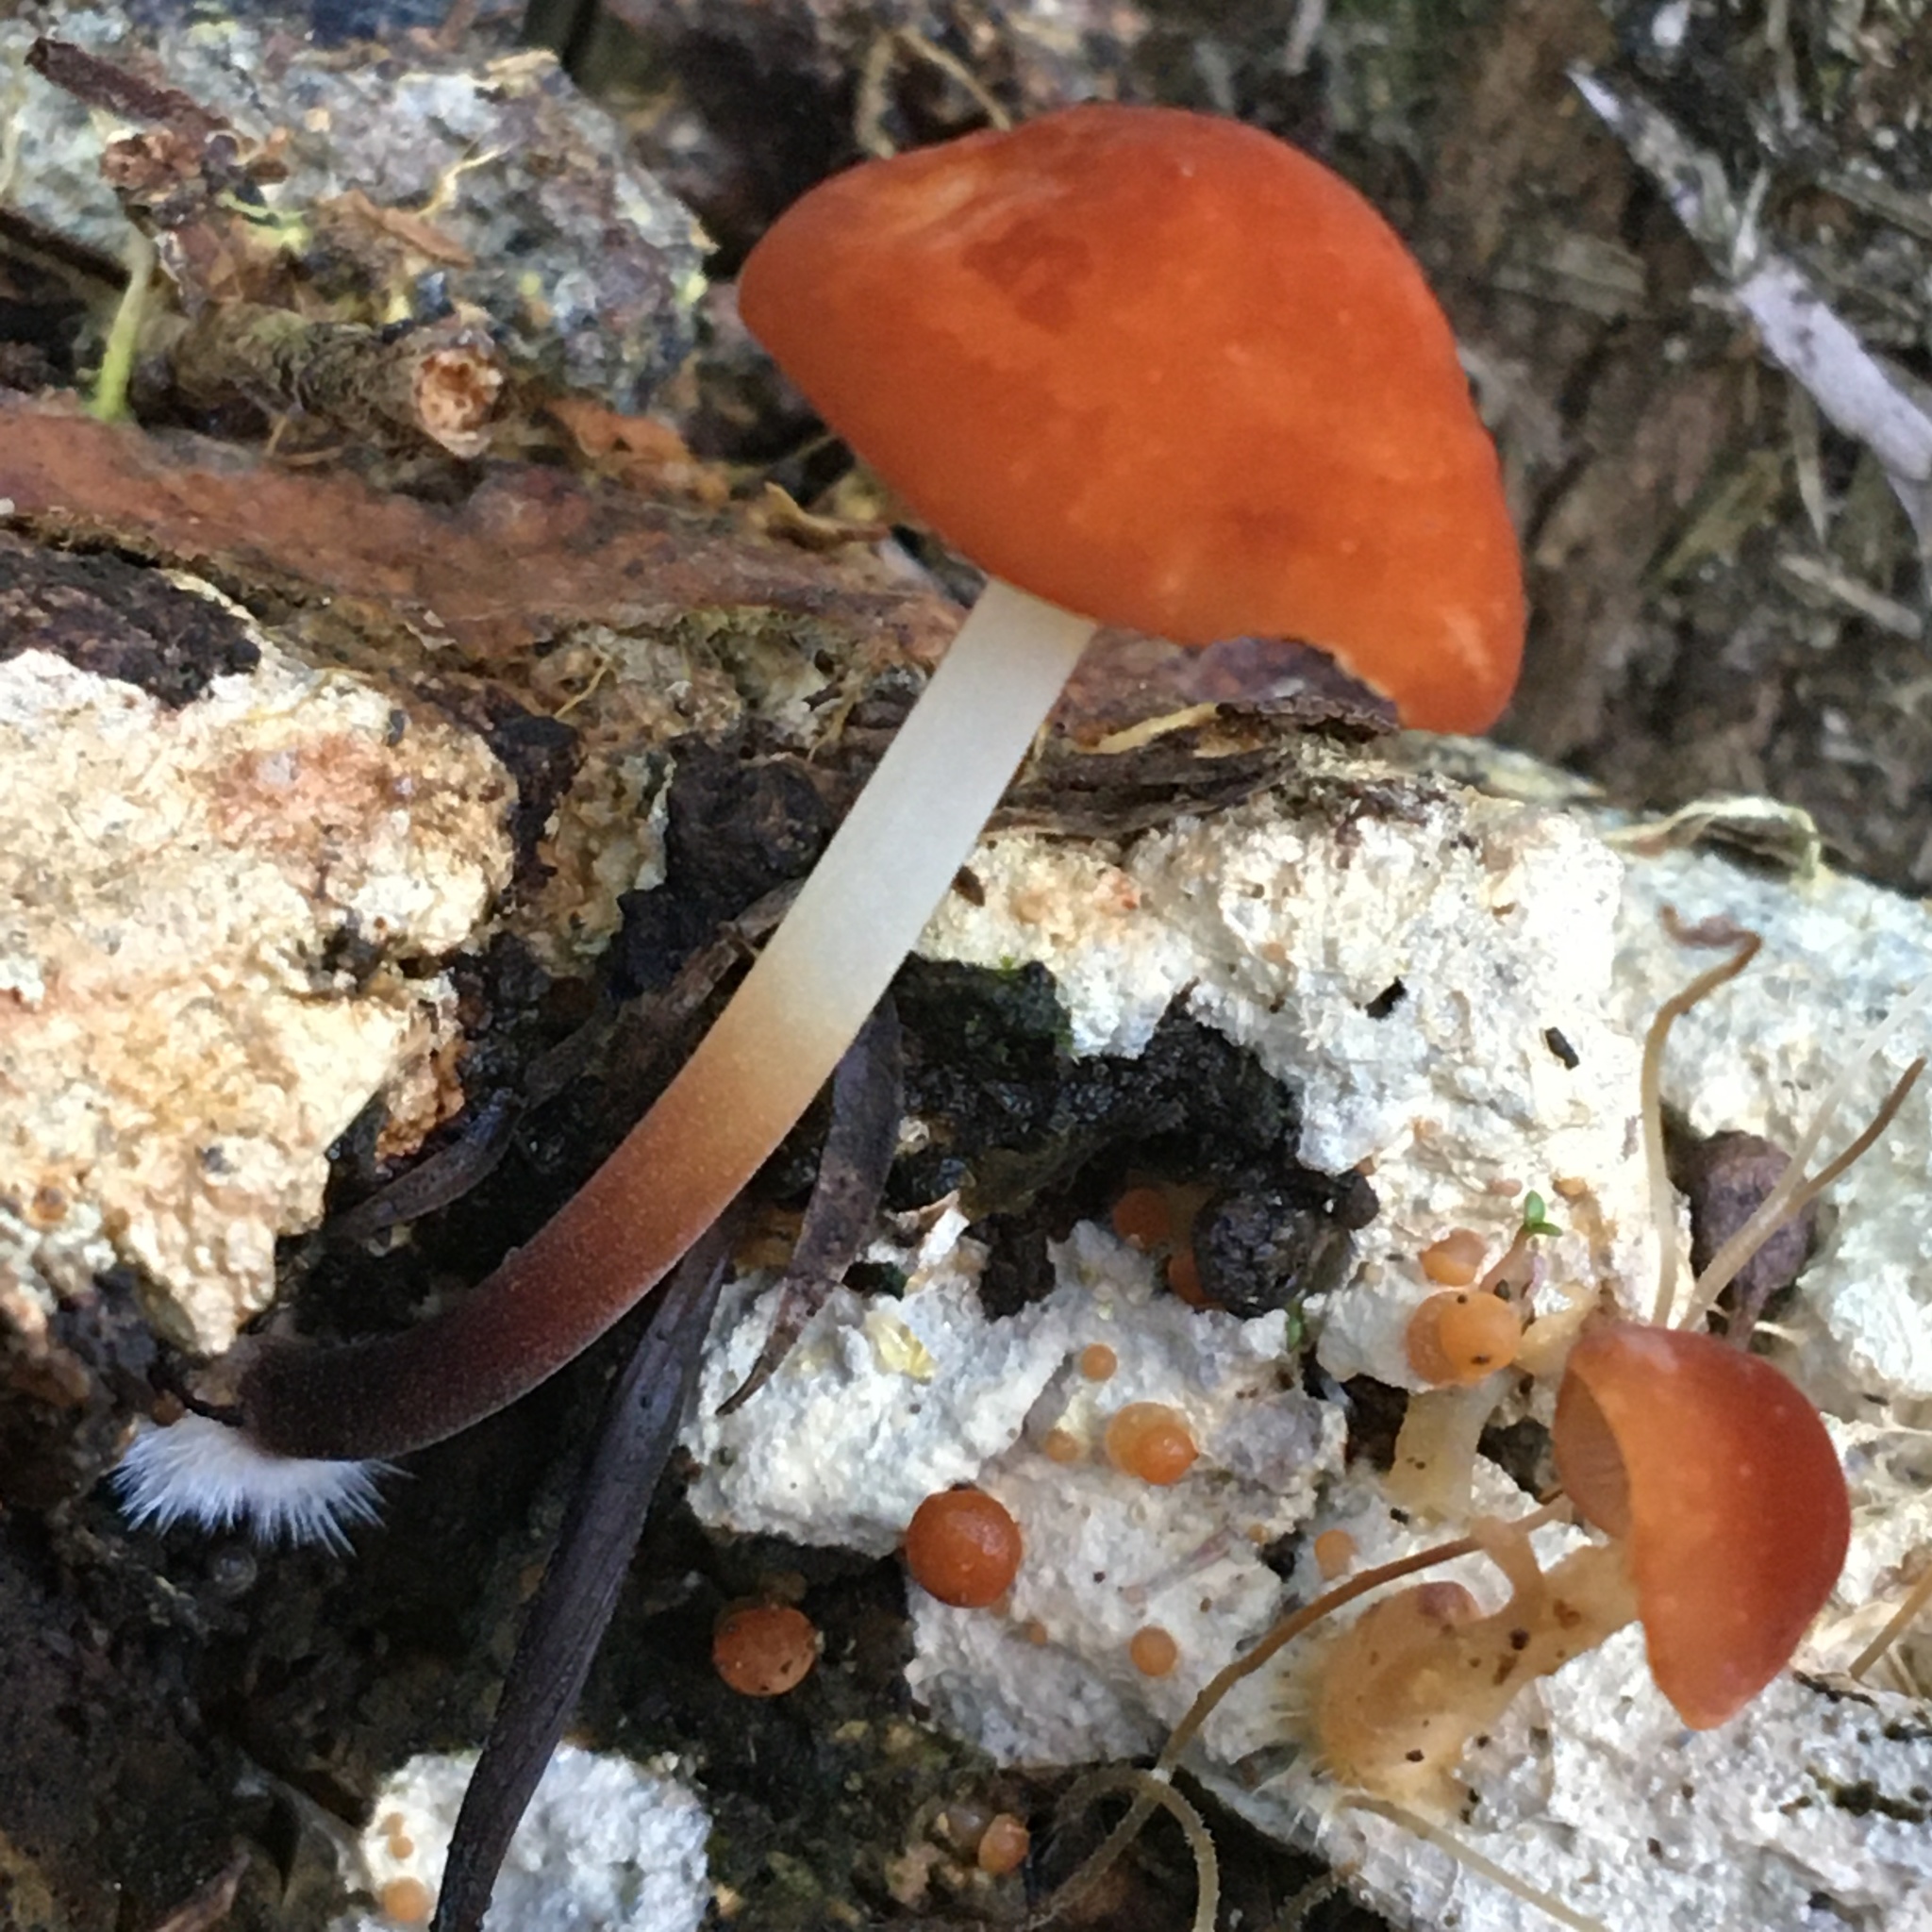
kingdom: Fungi
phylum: Basidiomycota
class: Agaricomycetes
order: Agaricales
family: Marasmiaceae
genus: Marasmius
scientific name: Marasmius elegans
